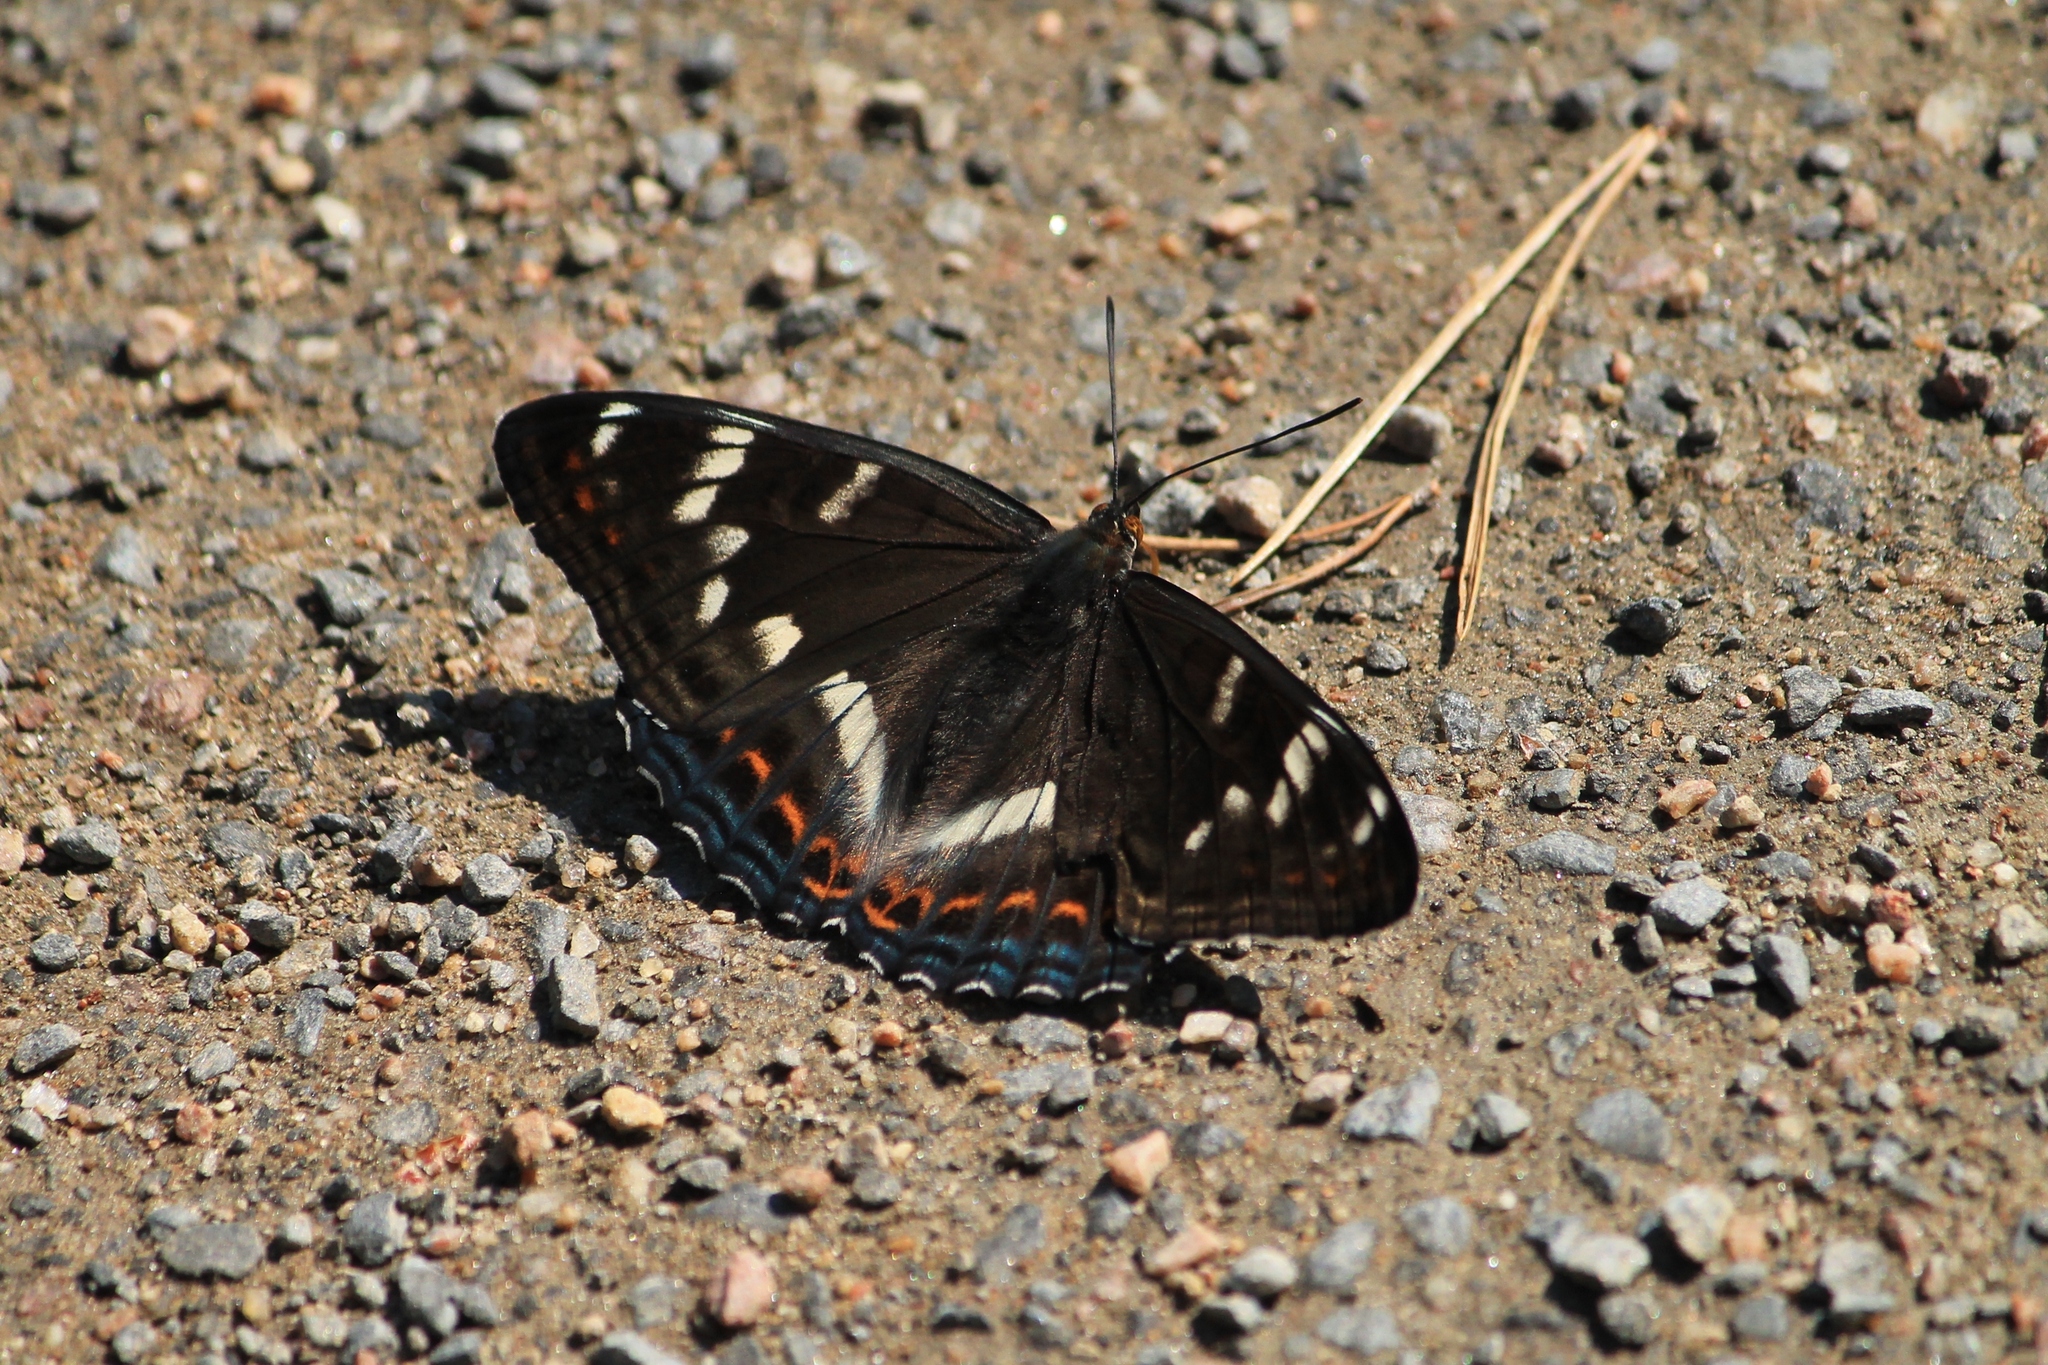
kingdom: Animalia
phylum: Arthropoda
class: Insecta
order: Lepidoptera
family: Nymphalidae
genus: Limenitis
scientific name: Limenitis populi
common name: Poplar admiral
